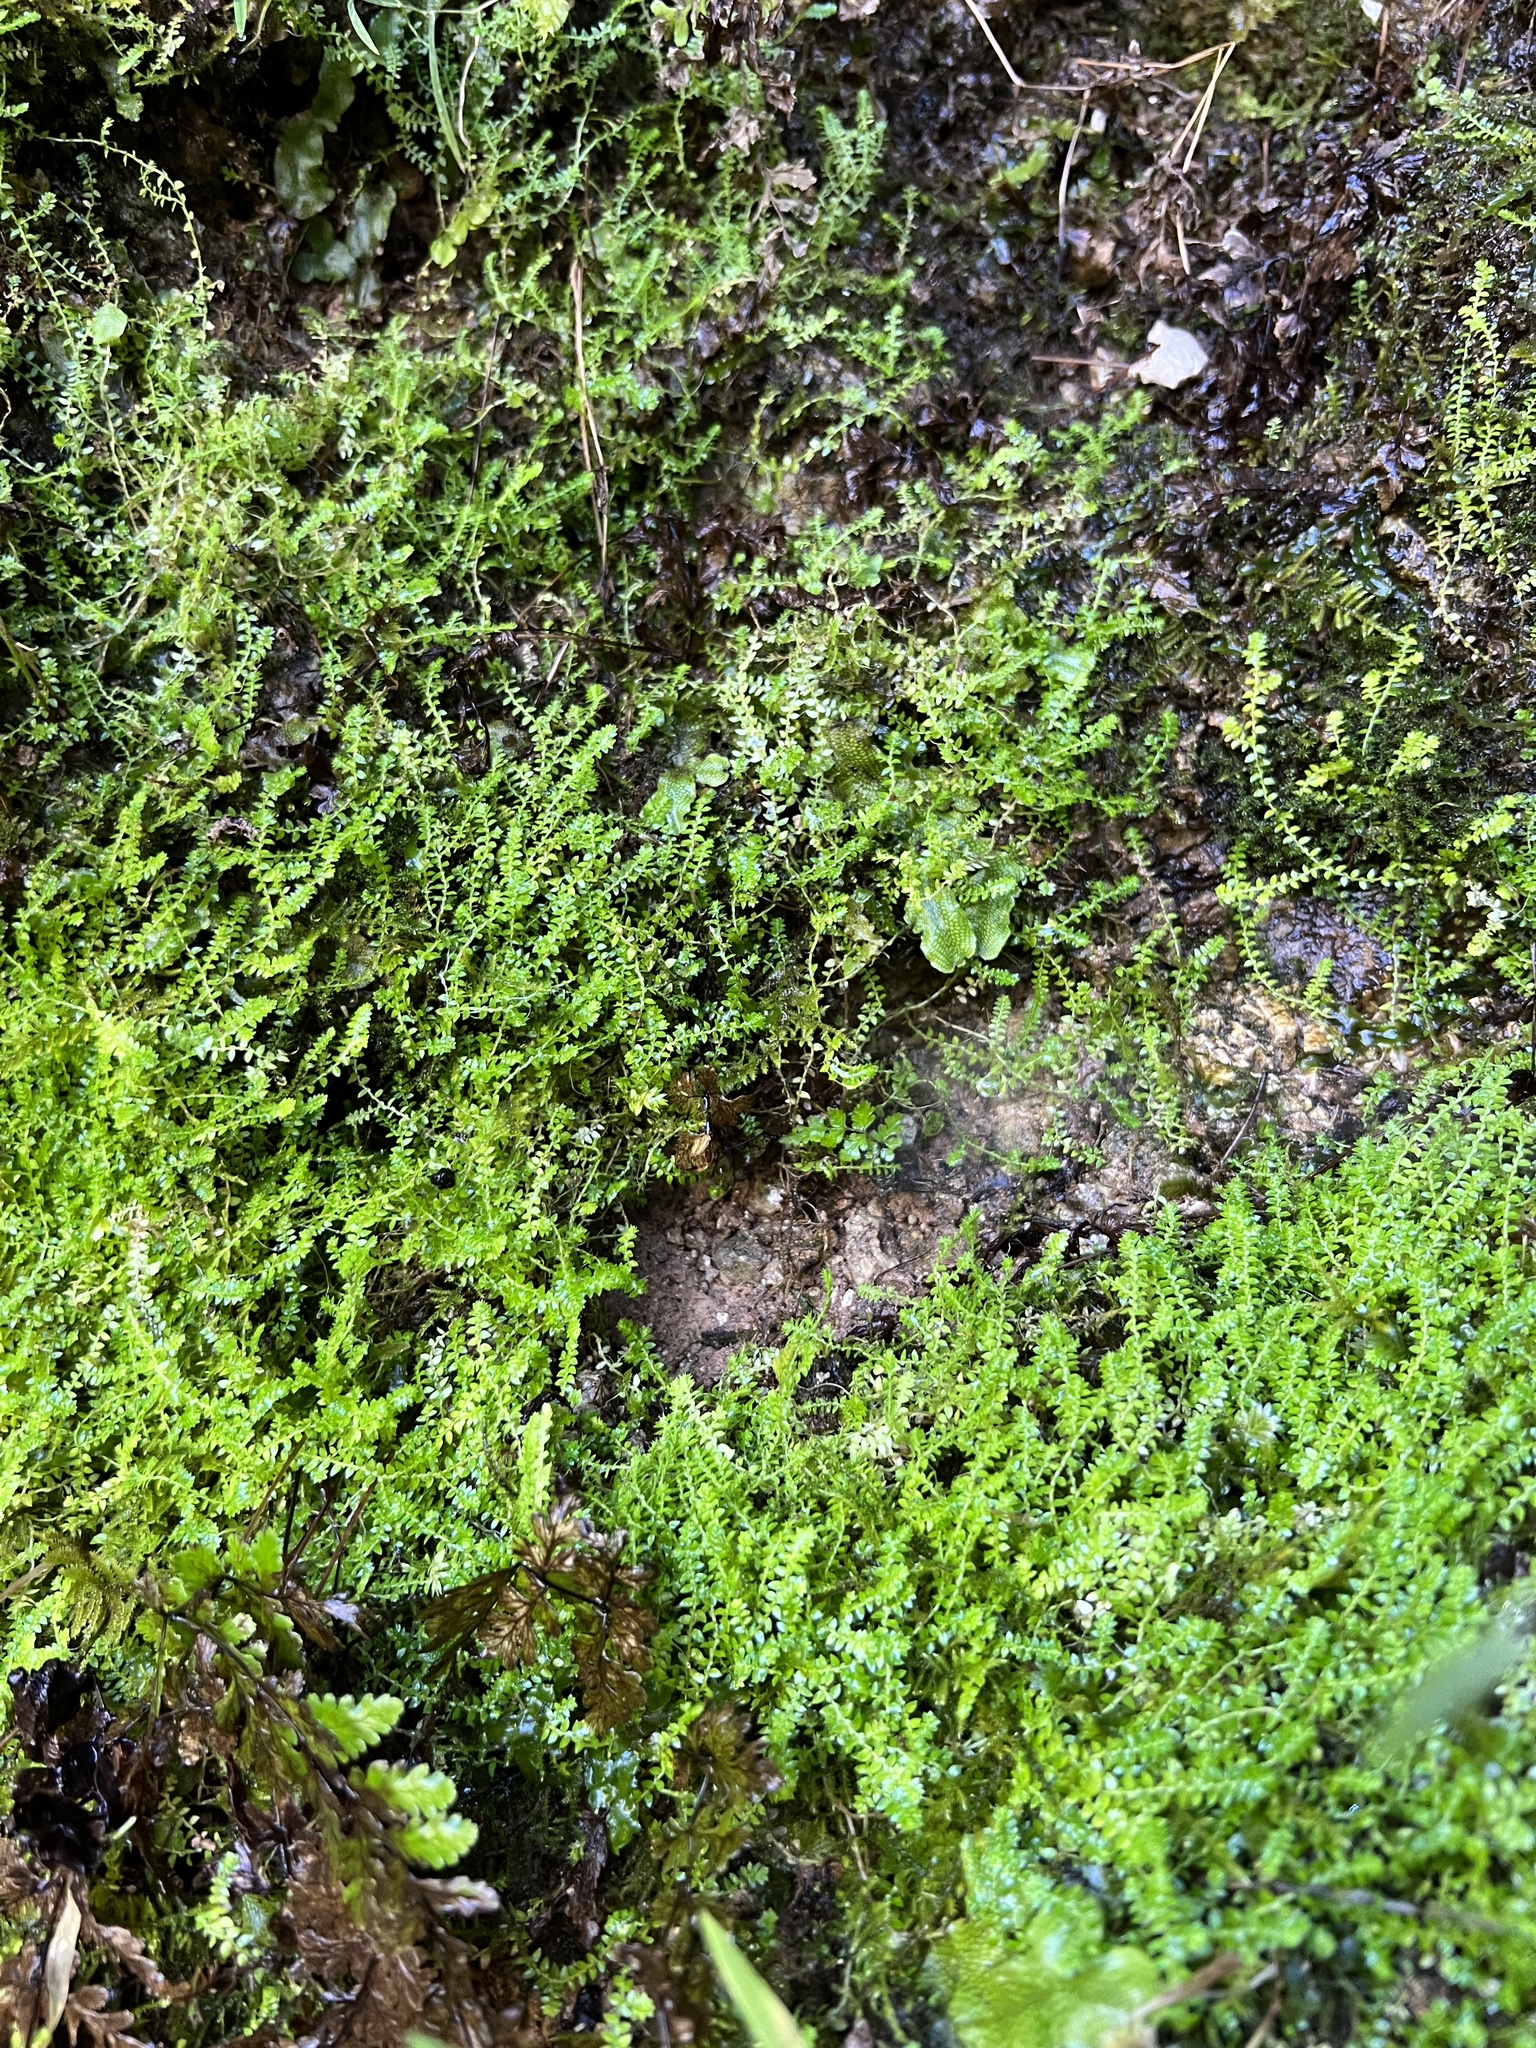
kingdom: Plantae
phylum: Tracheophyta
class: Lycopodiopsida
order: Selaginellales
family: Selaginellaceae
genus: Selaginella
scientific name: Selaginella eclipes
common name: Buck's meadow spikemoss
